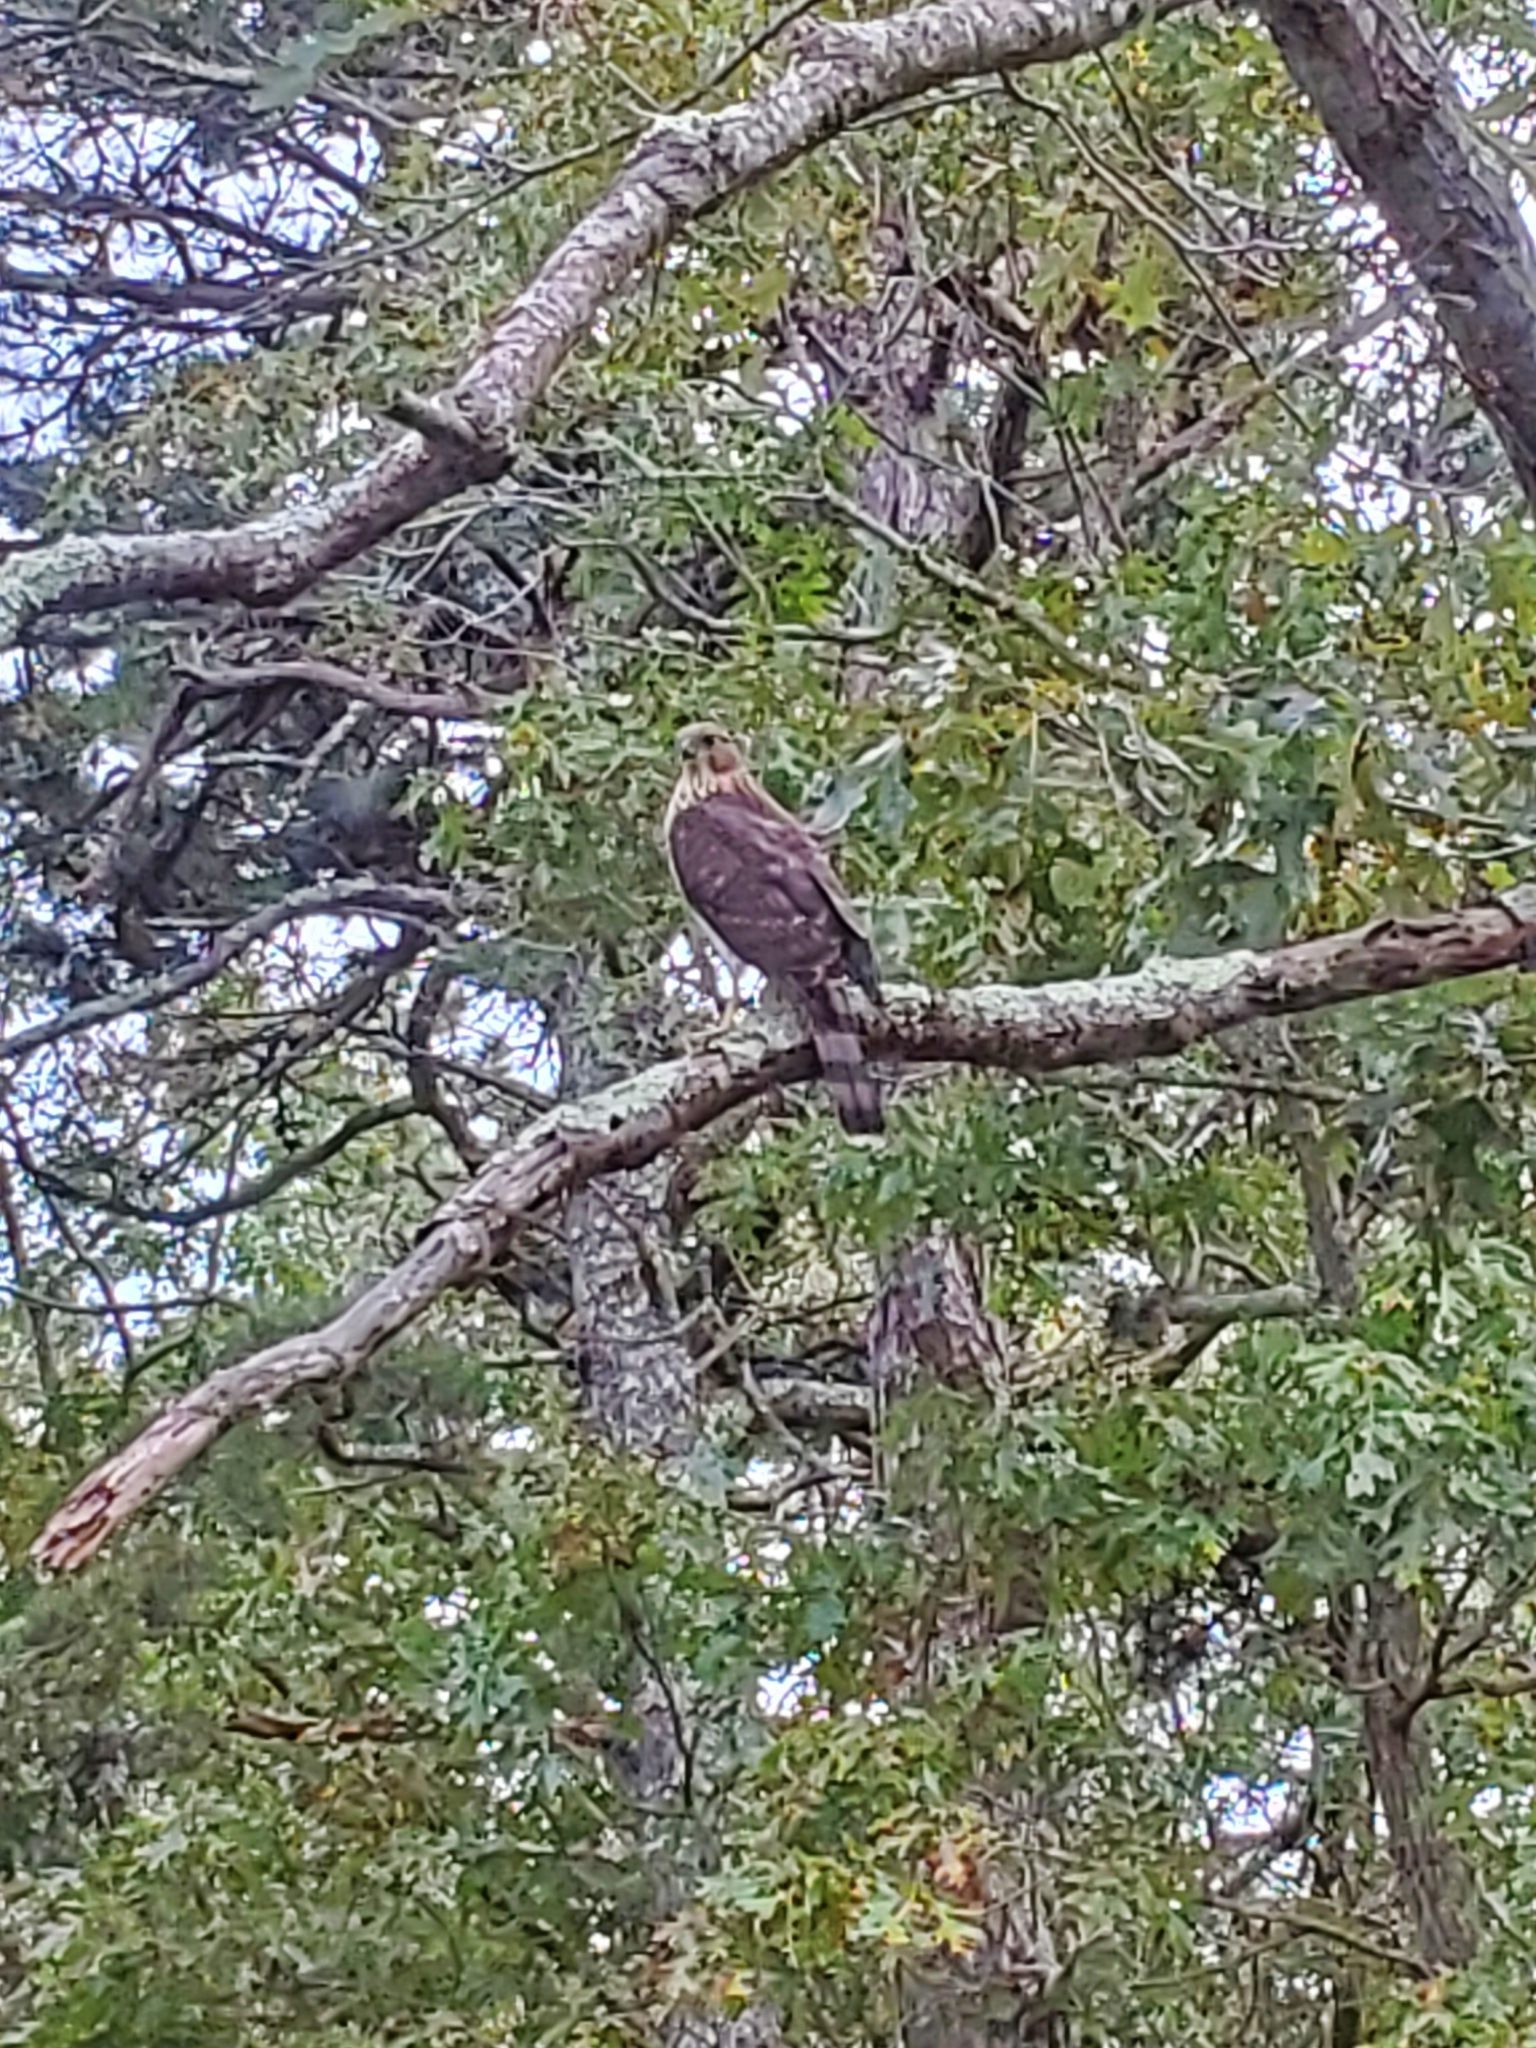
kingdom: Animalia
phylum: Chordata
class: Aves
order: Accipitriformes
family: Accipitridae
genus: Accipiter
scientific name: Accipiter cooperii
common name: Cooper's hawk
